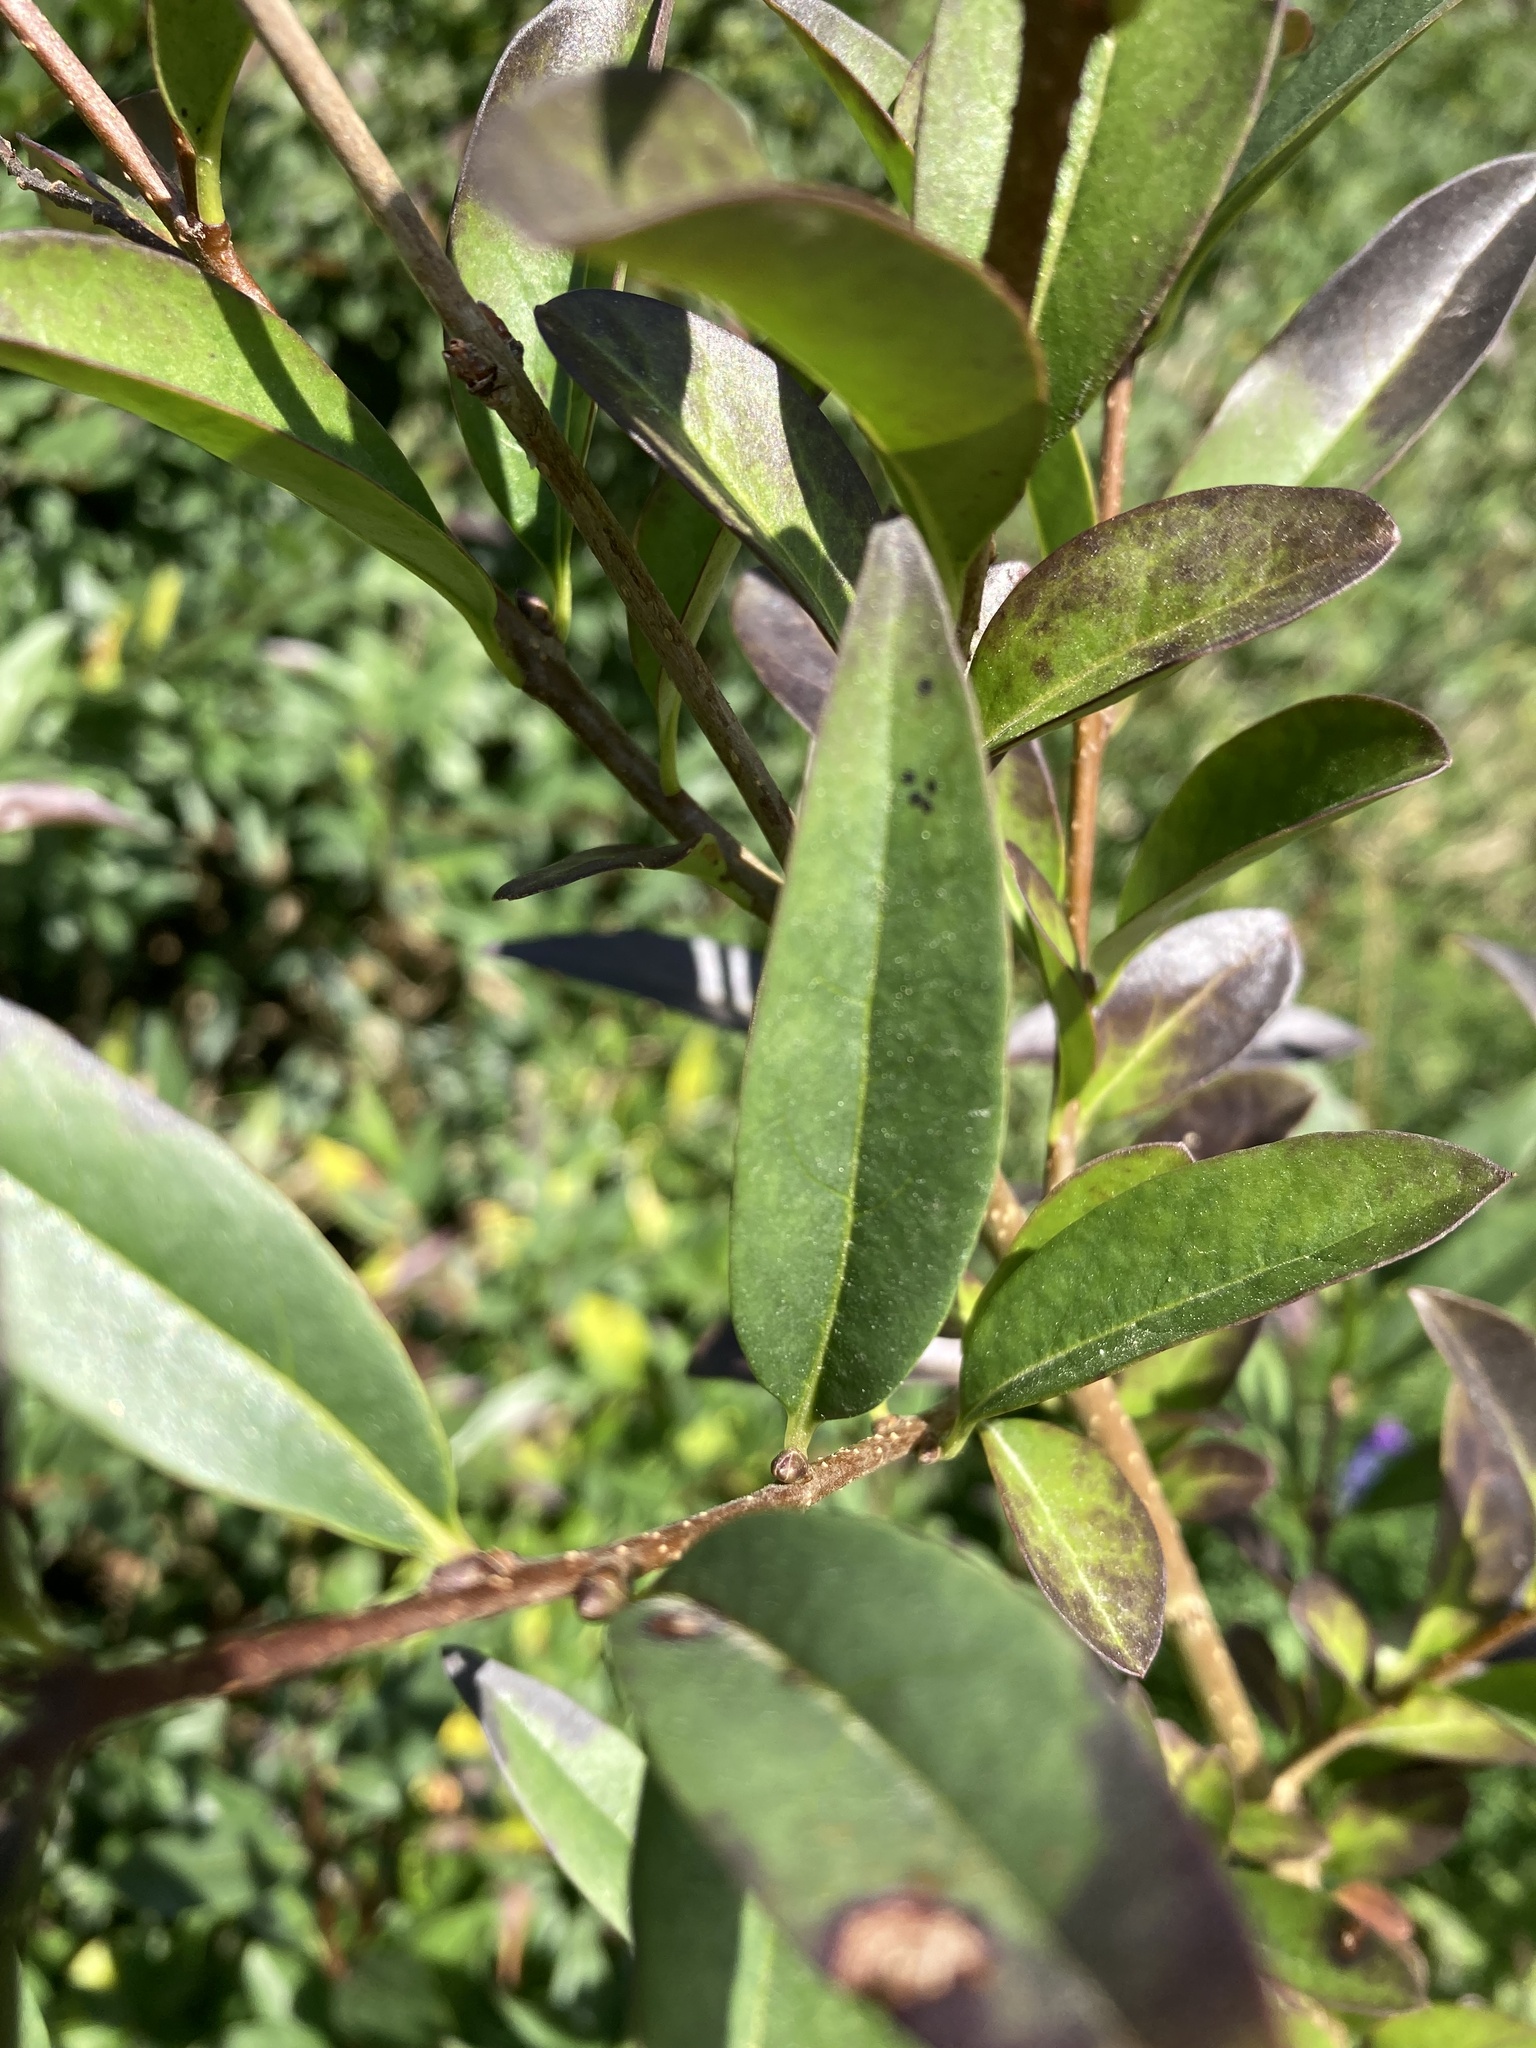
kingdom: Plantae
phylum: Tracheophyta
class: Magnoliopsida
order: Lamiales
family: Oleaceae
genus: Ligustrum
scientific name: Ligustrum vulgare
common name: Wild privet
